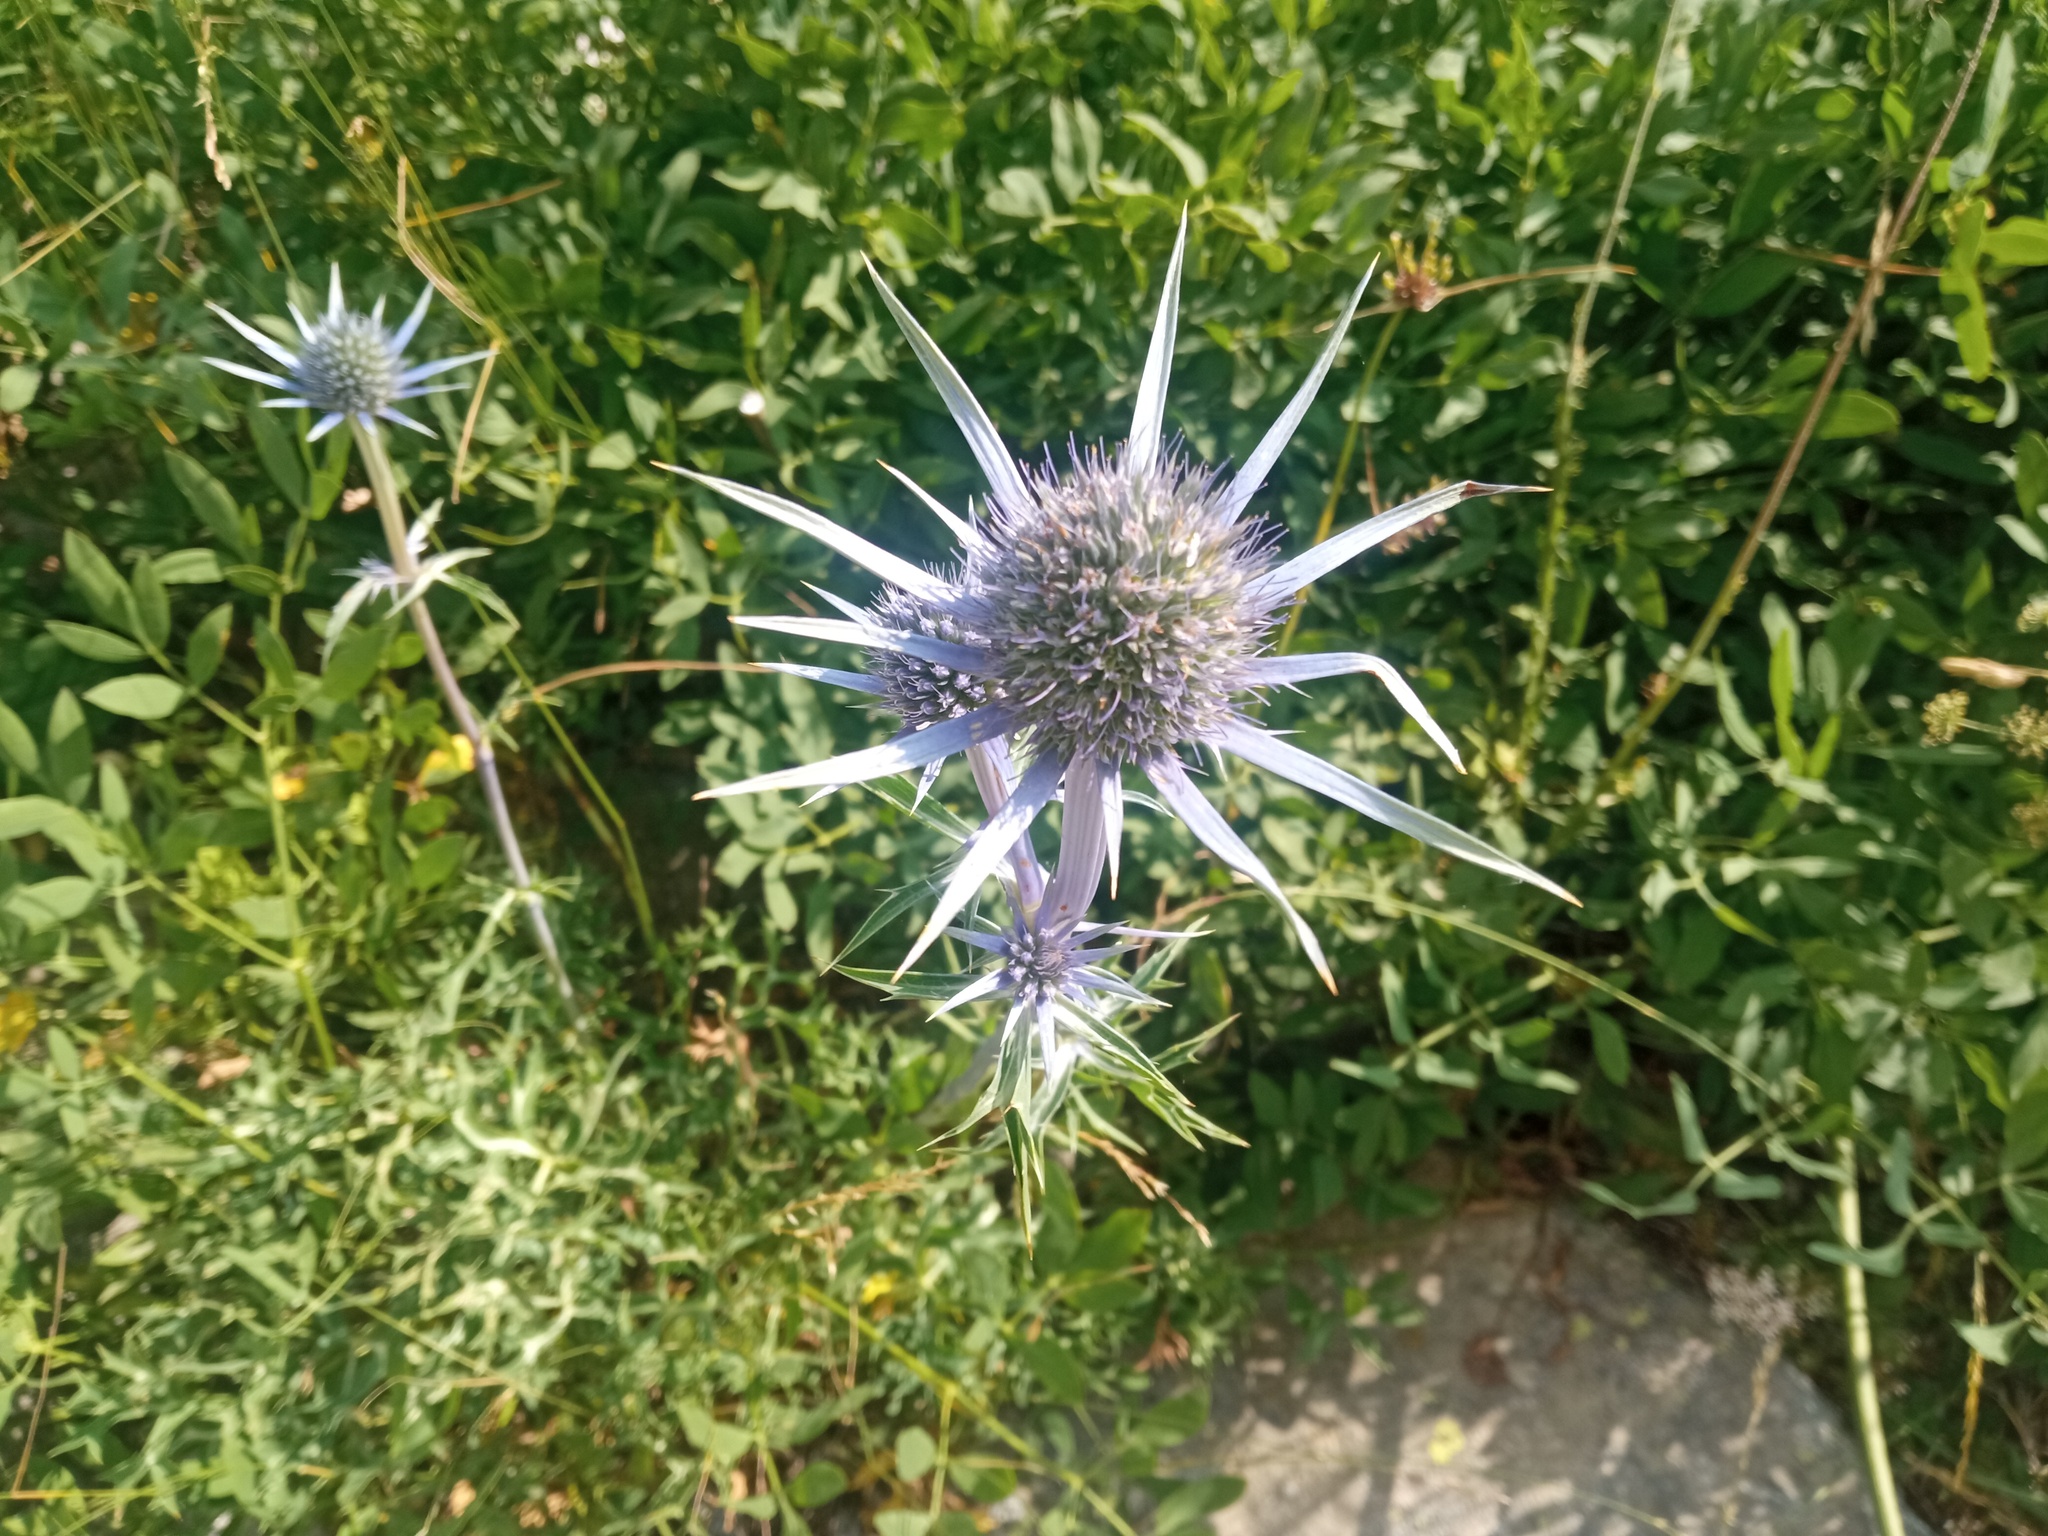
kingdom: Plantae
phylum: Tracheophyta
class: Magnoliopsida
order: Apiales
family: Apiaceae
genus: Eryngium
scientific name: Eryngium bourgatii
